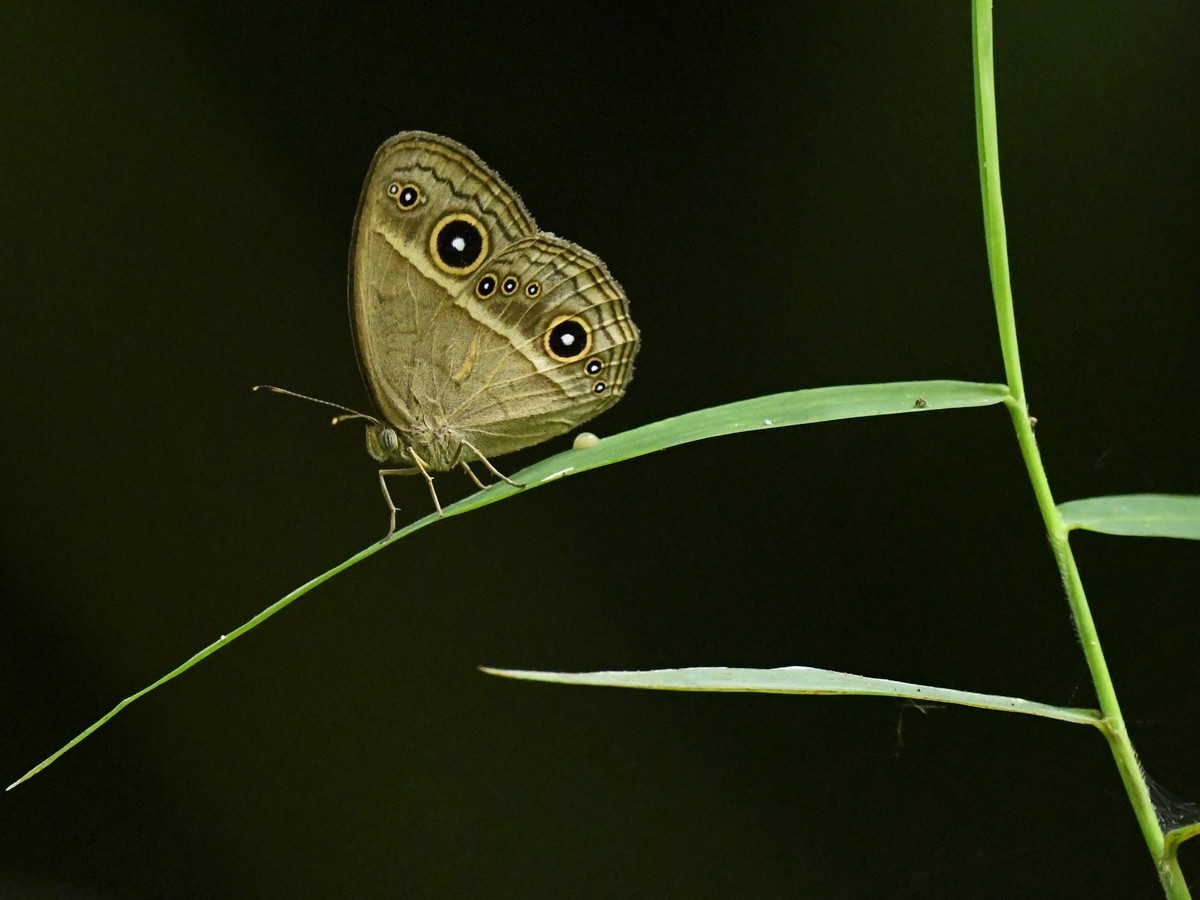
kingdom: Animalia
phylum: Arthropoda
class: Insecta
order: Lepidoptera
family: Nymphalidae
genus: Mycalesis
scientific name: Mycalesis gotama
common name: Chinese bushbrown
